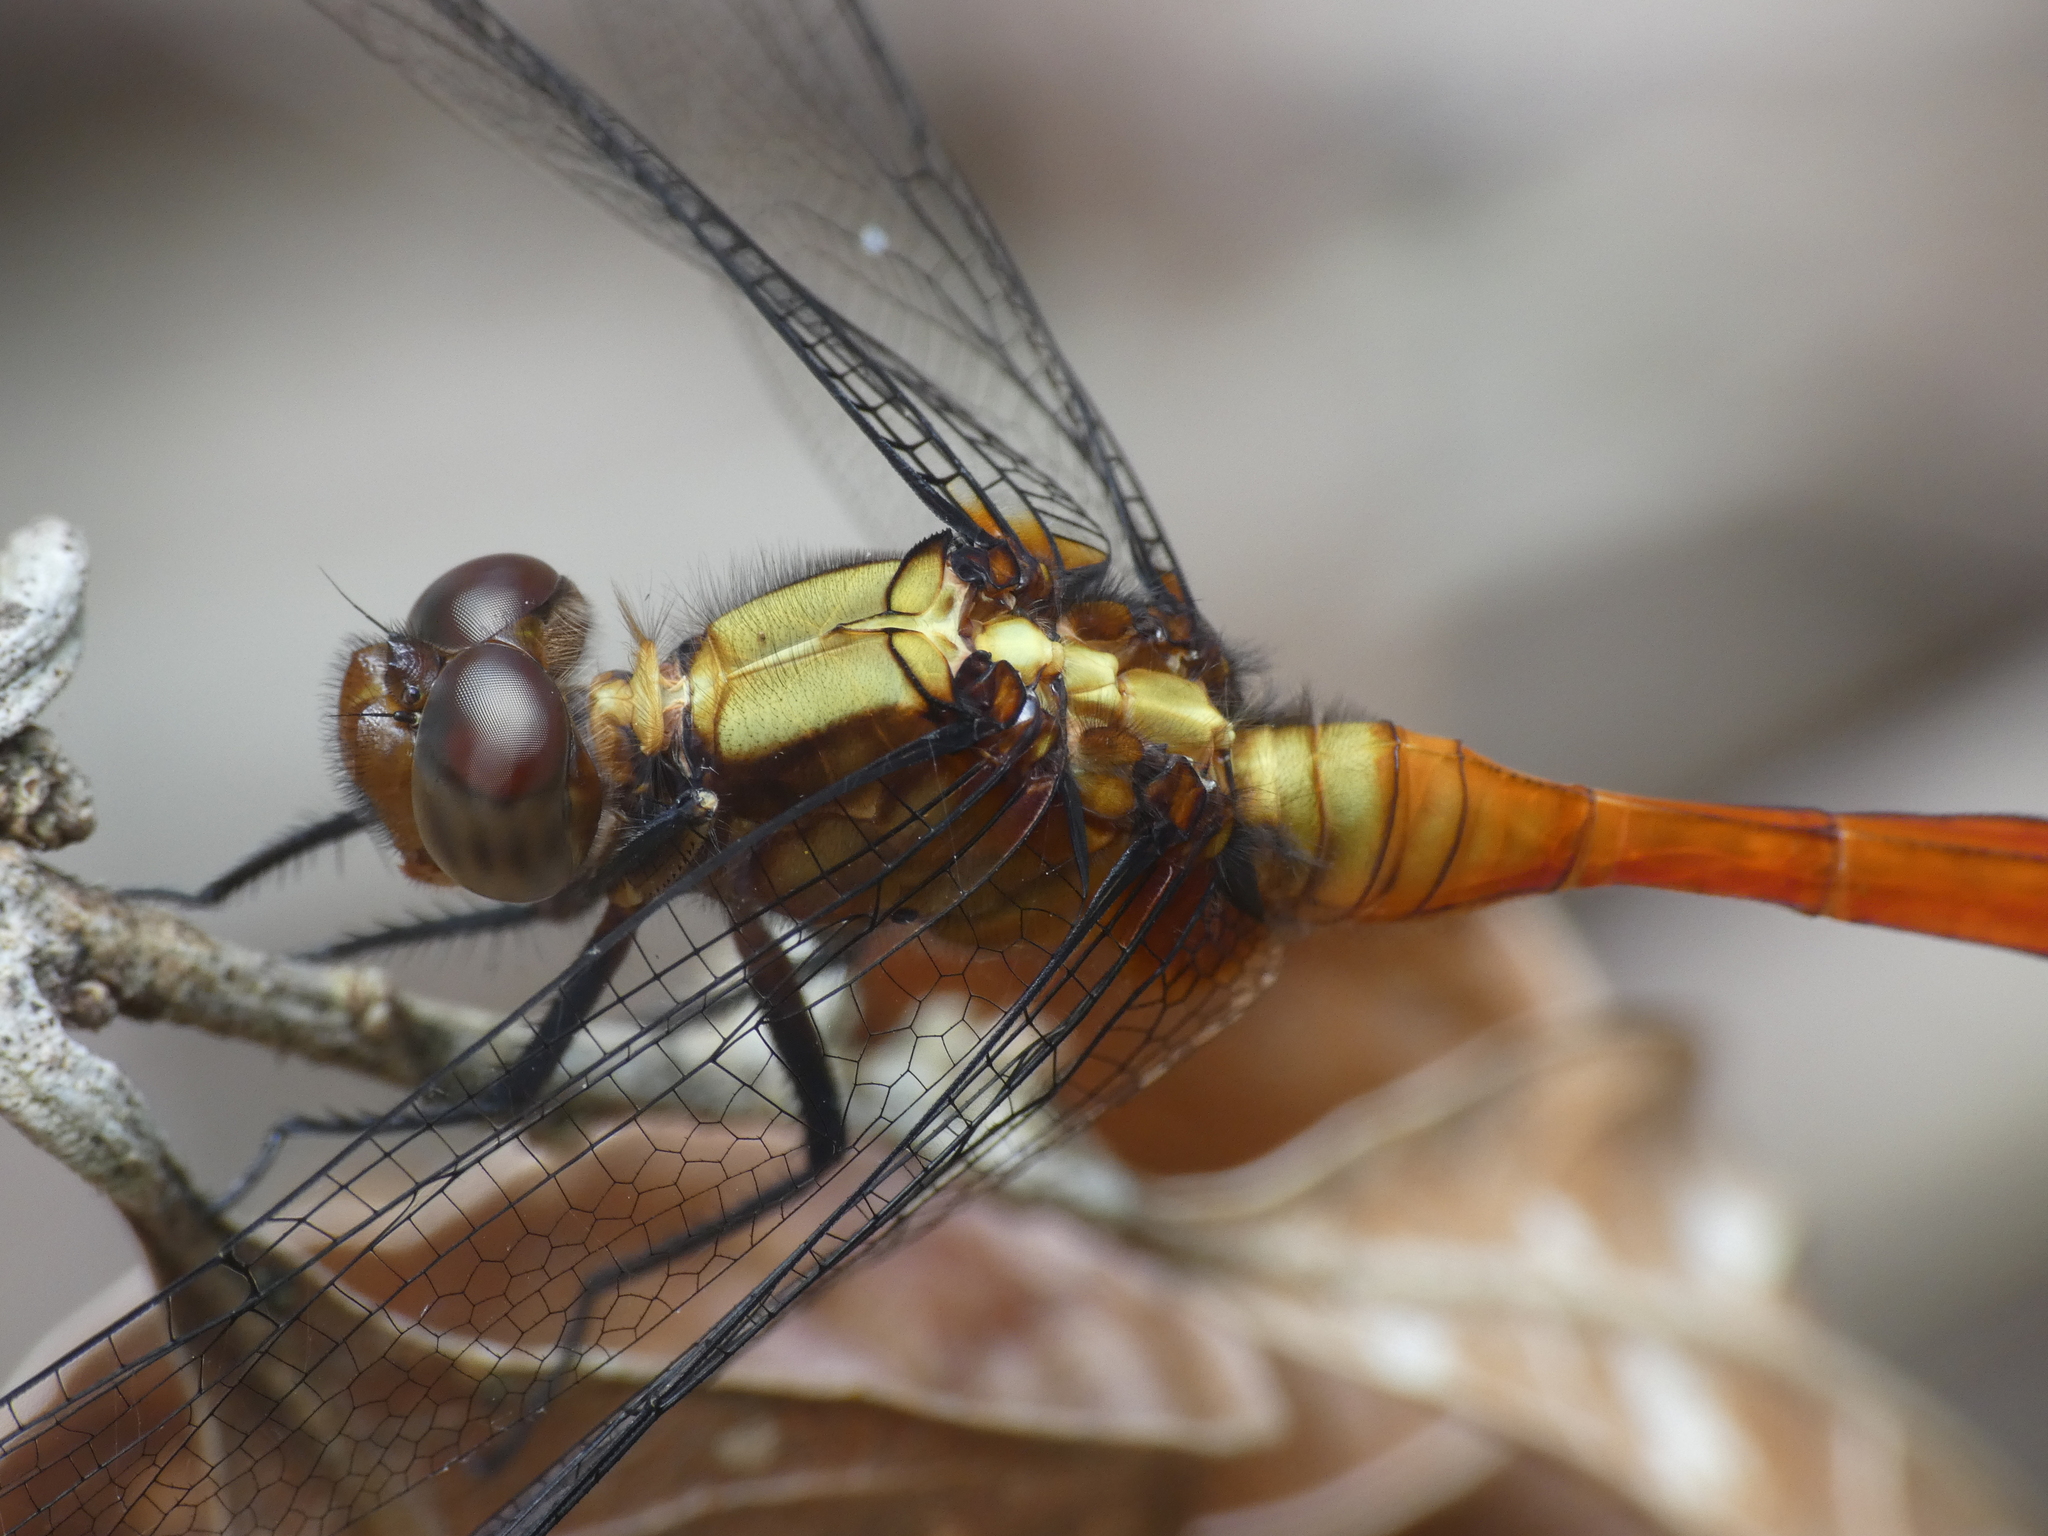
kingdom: Animalia
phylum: Arthropoda
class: Insecta
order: Odonata
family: Libellulidae
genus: Orthetrum
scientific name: Orthetrum villosovittatum
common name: Firery skimmer
